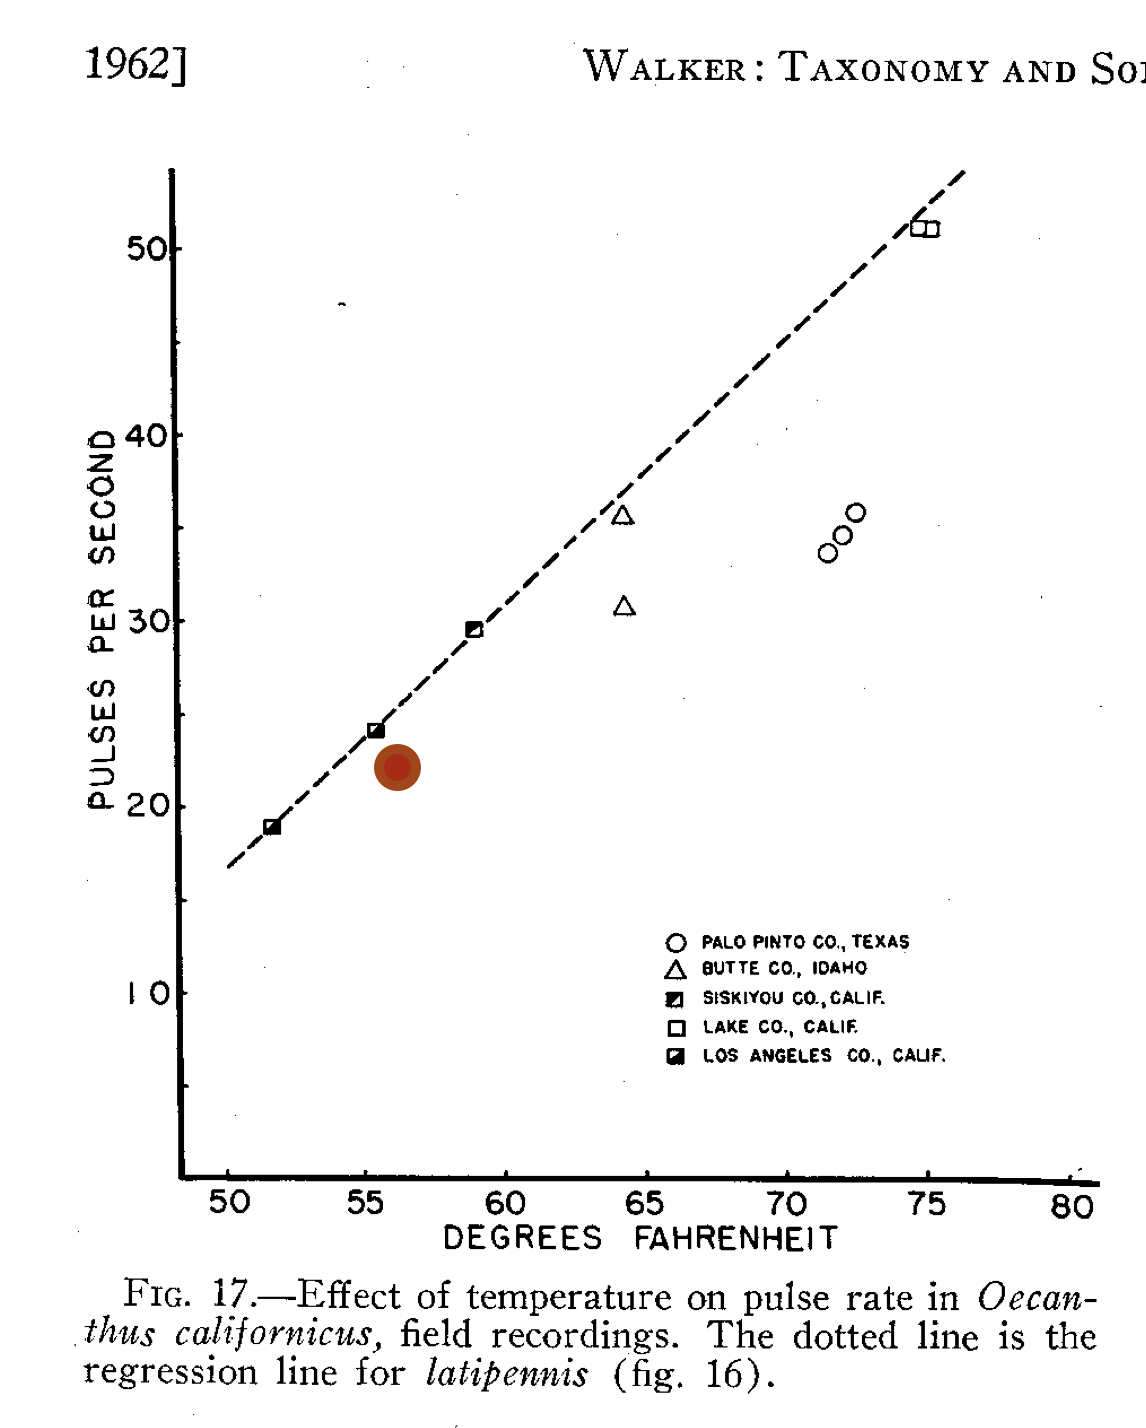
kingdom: Animalia
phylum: Arthropoda
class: Insecta
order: Orthoptera
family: Gryllidae
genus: Oecanthus
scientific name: Oecanthus californicus
